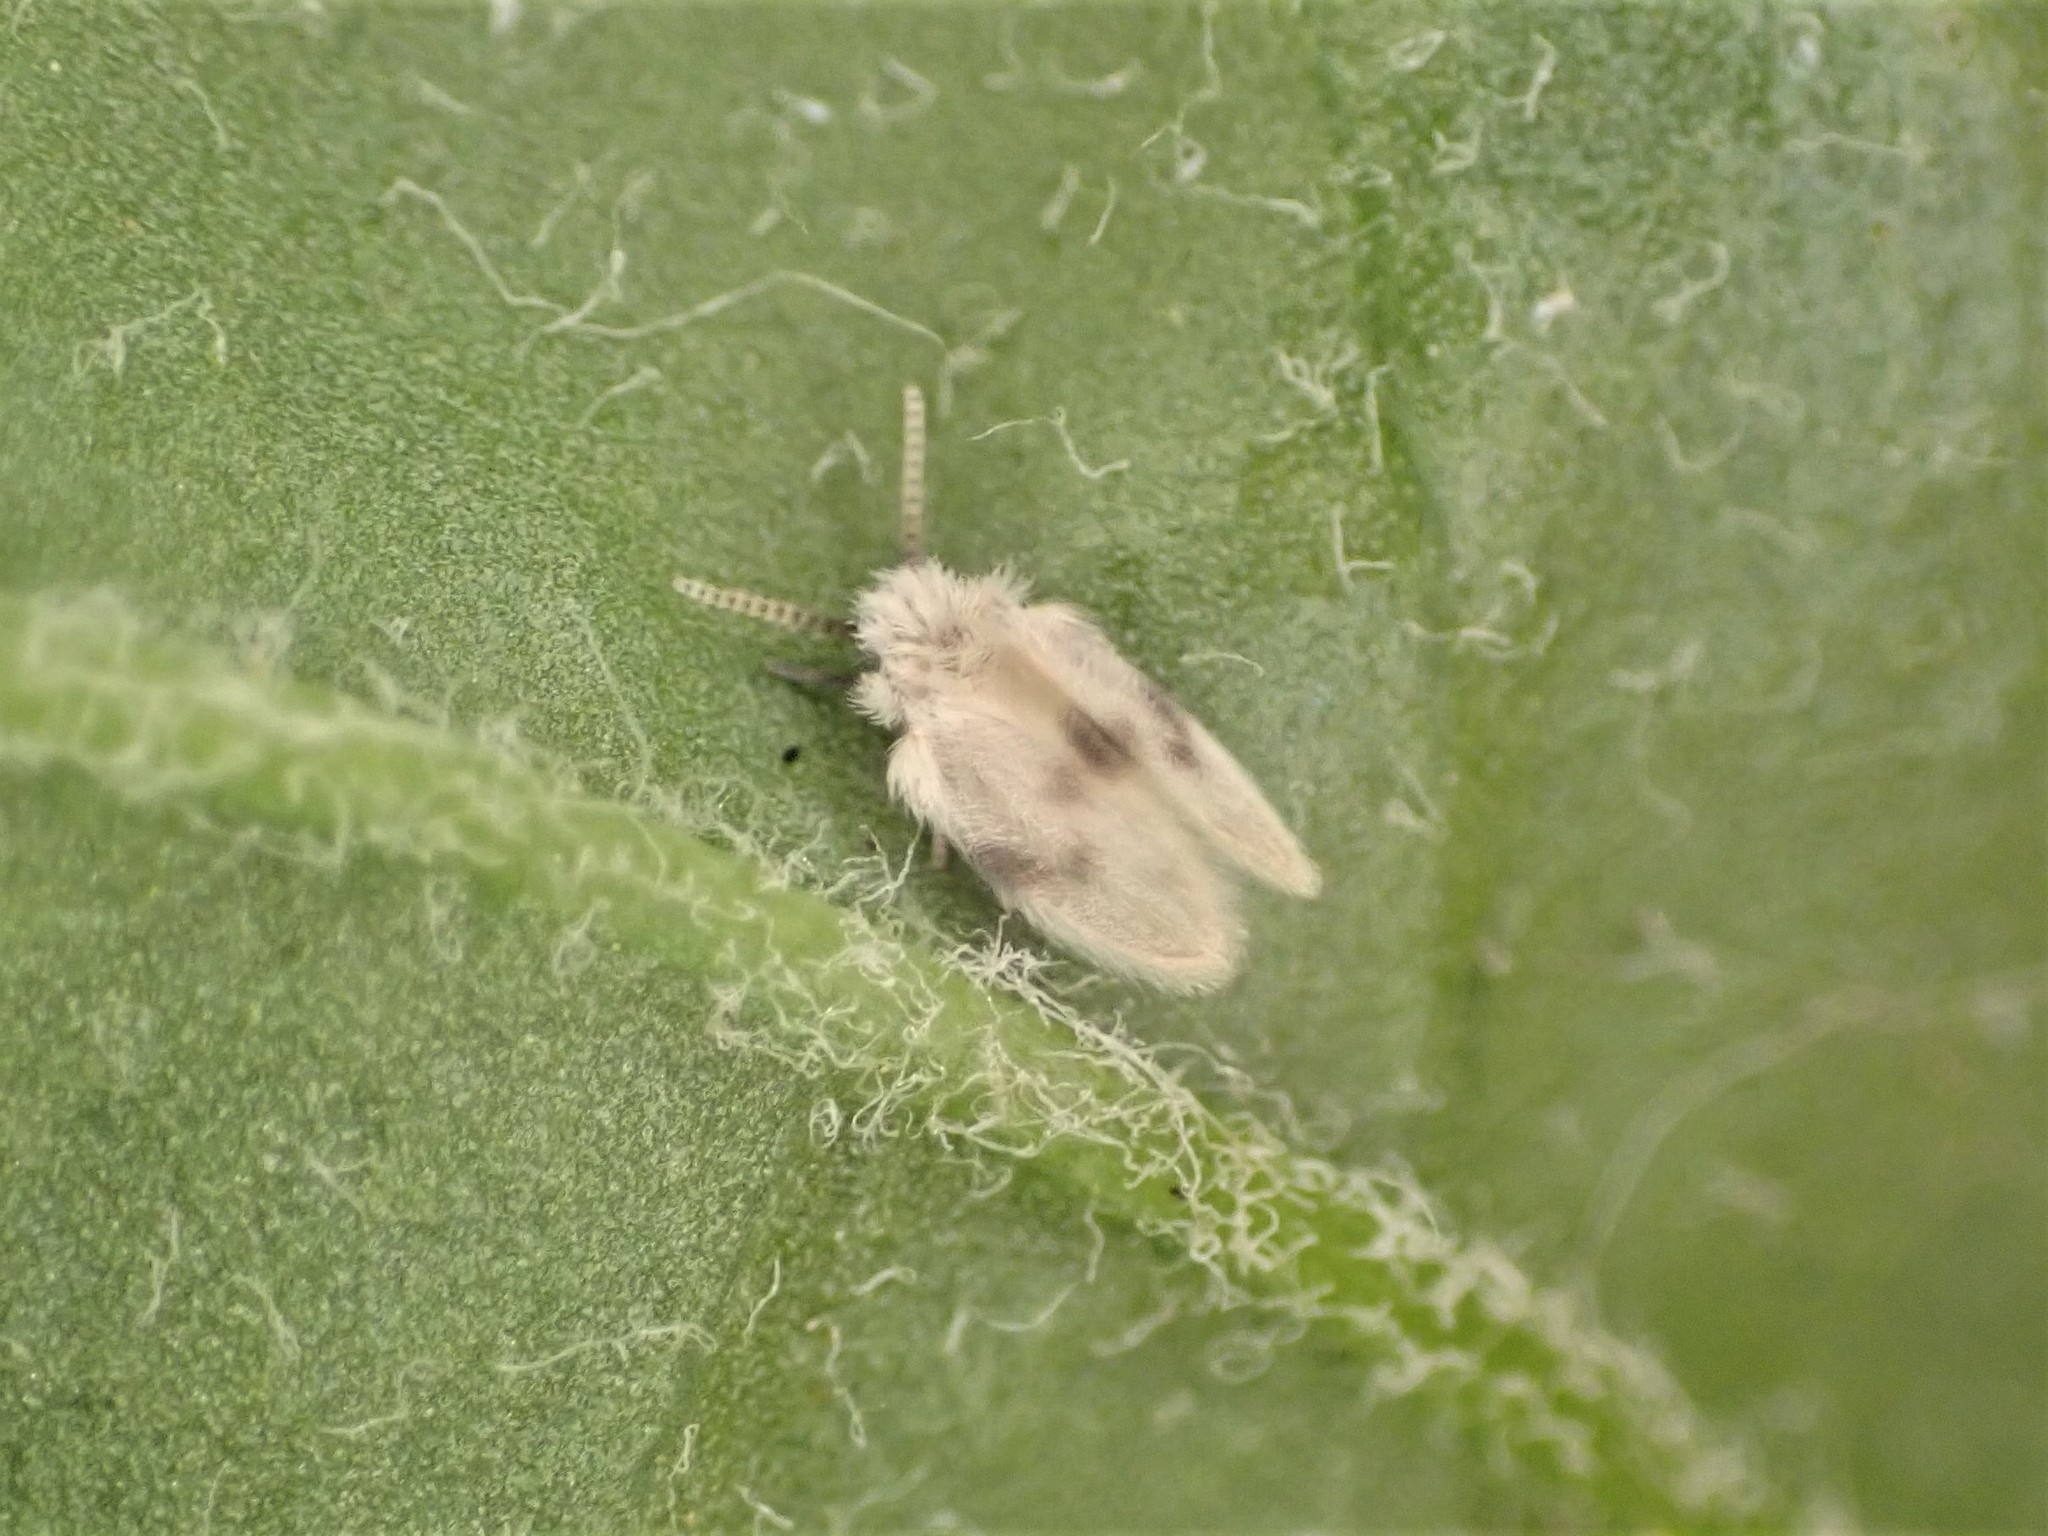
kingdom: Animalia
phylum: Arthropoda
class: Insecta
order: Diptera
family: Psychodidae
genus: Psychoda
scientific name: Psychoda sigma
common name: Moth fly
